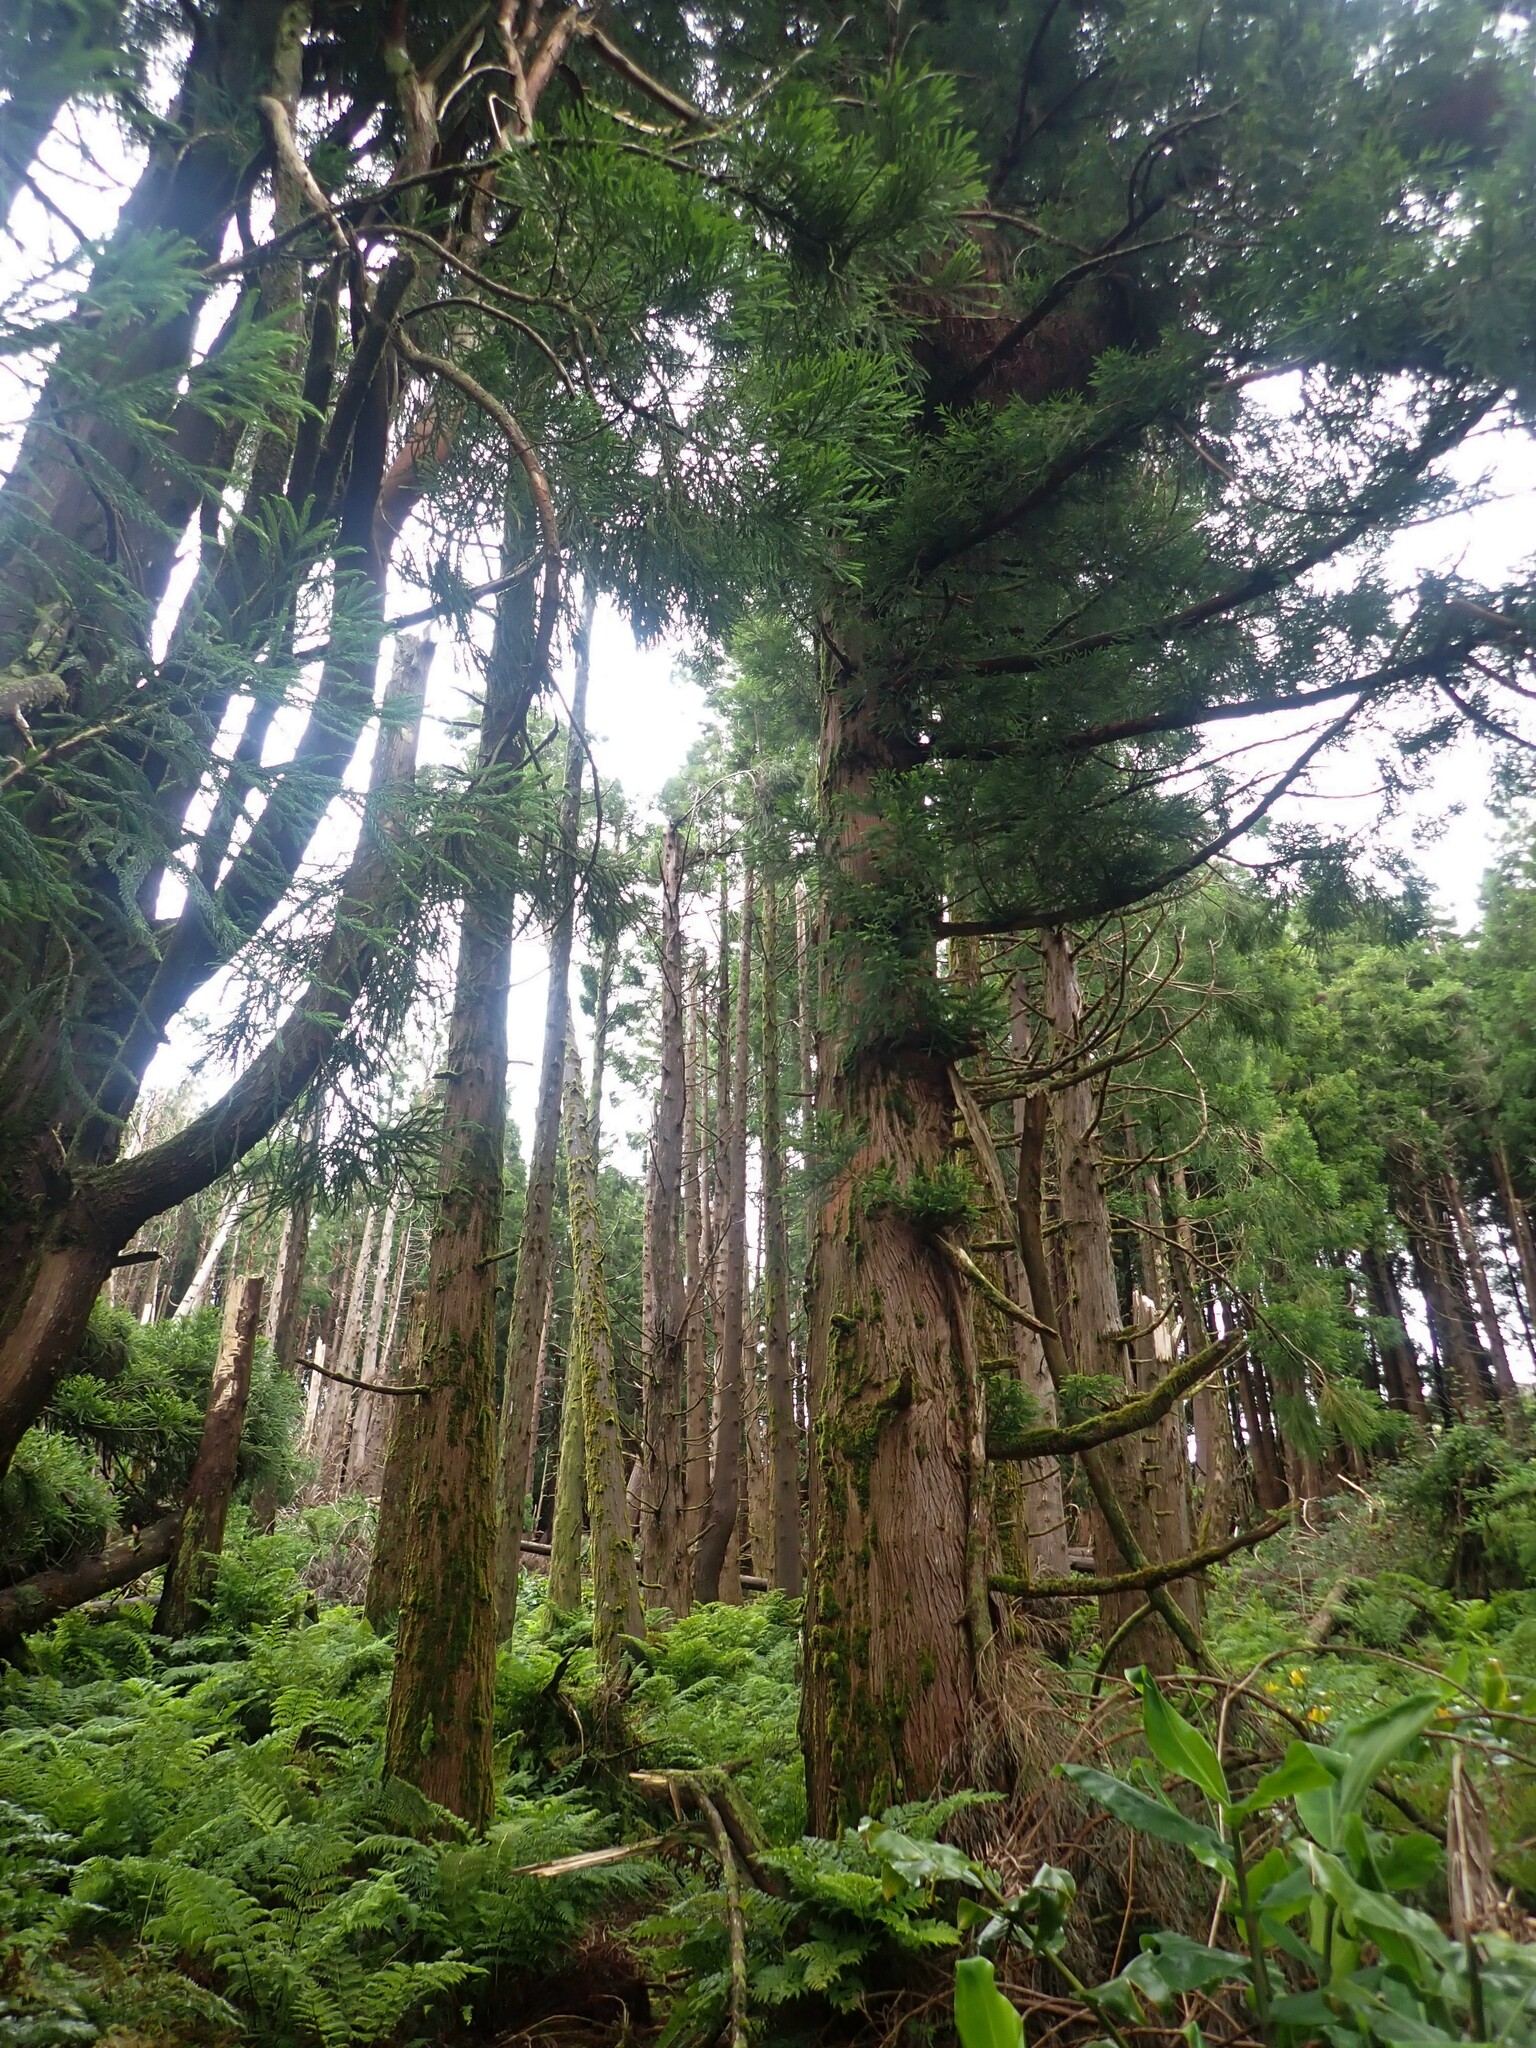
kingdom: Plantae
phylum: Tracheophyta
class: Pinopsida
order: Pinales
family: Cupressaceae
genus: Cryptomeria
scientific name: Cryptomeria japonica
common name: Japanese cedar
